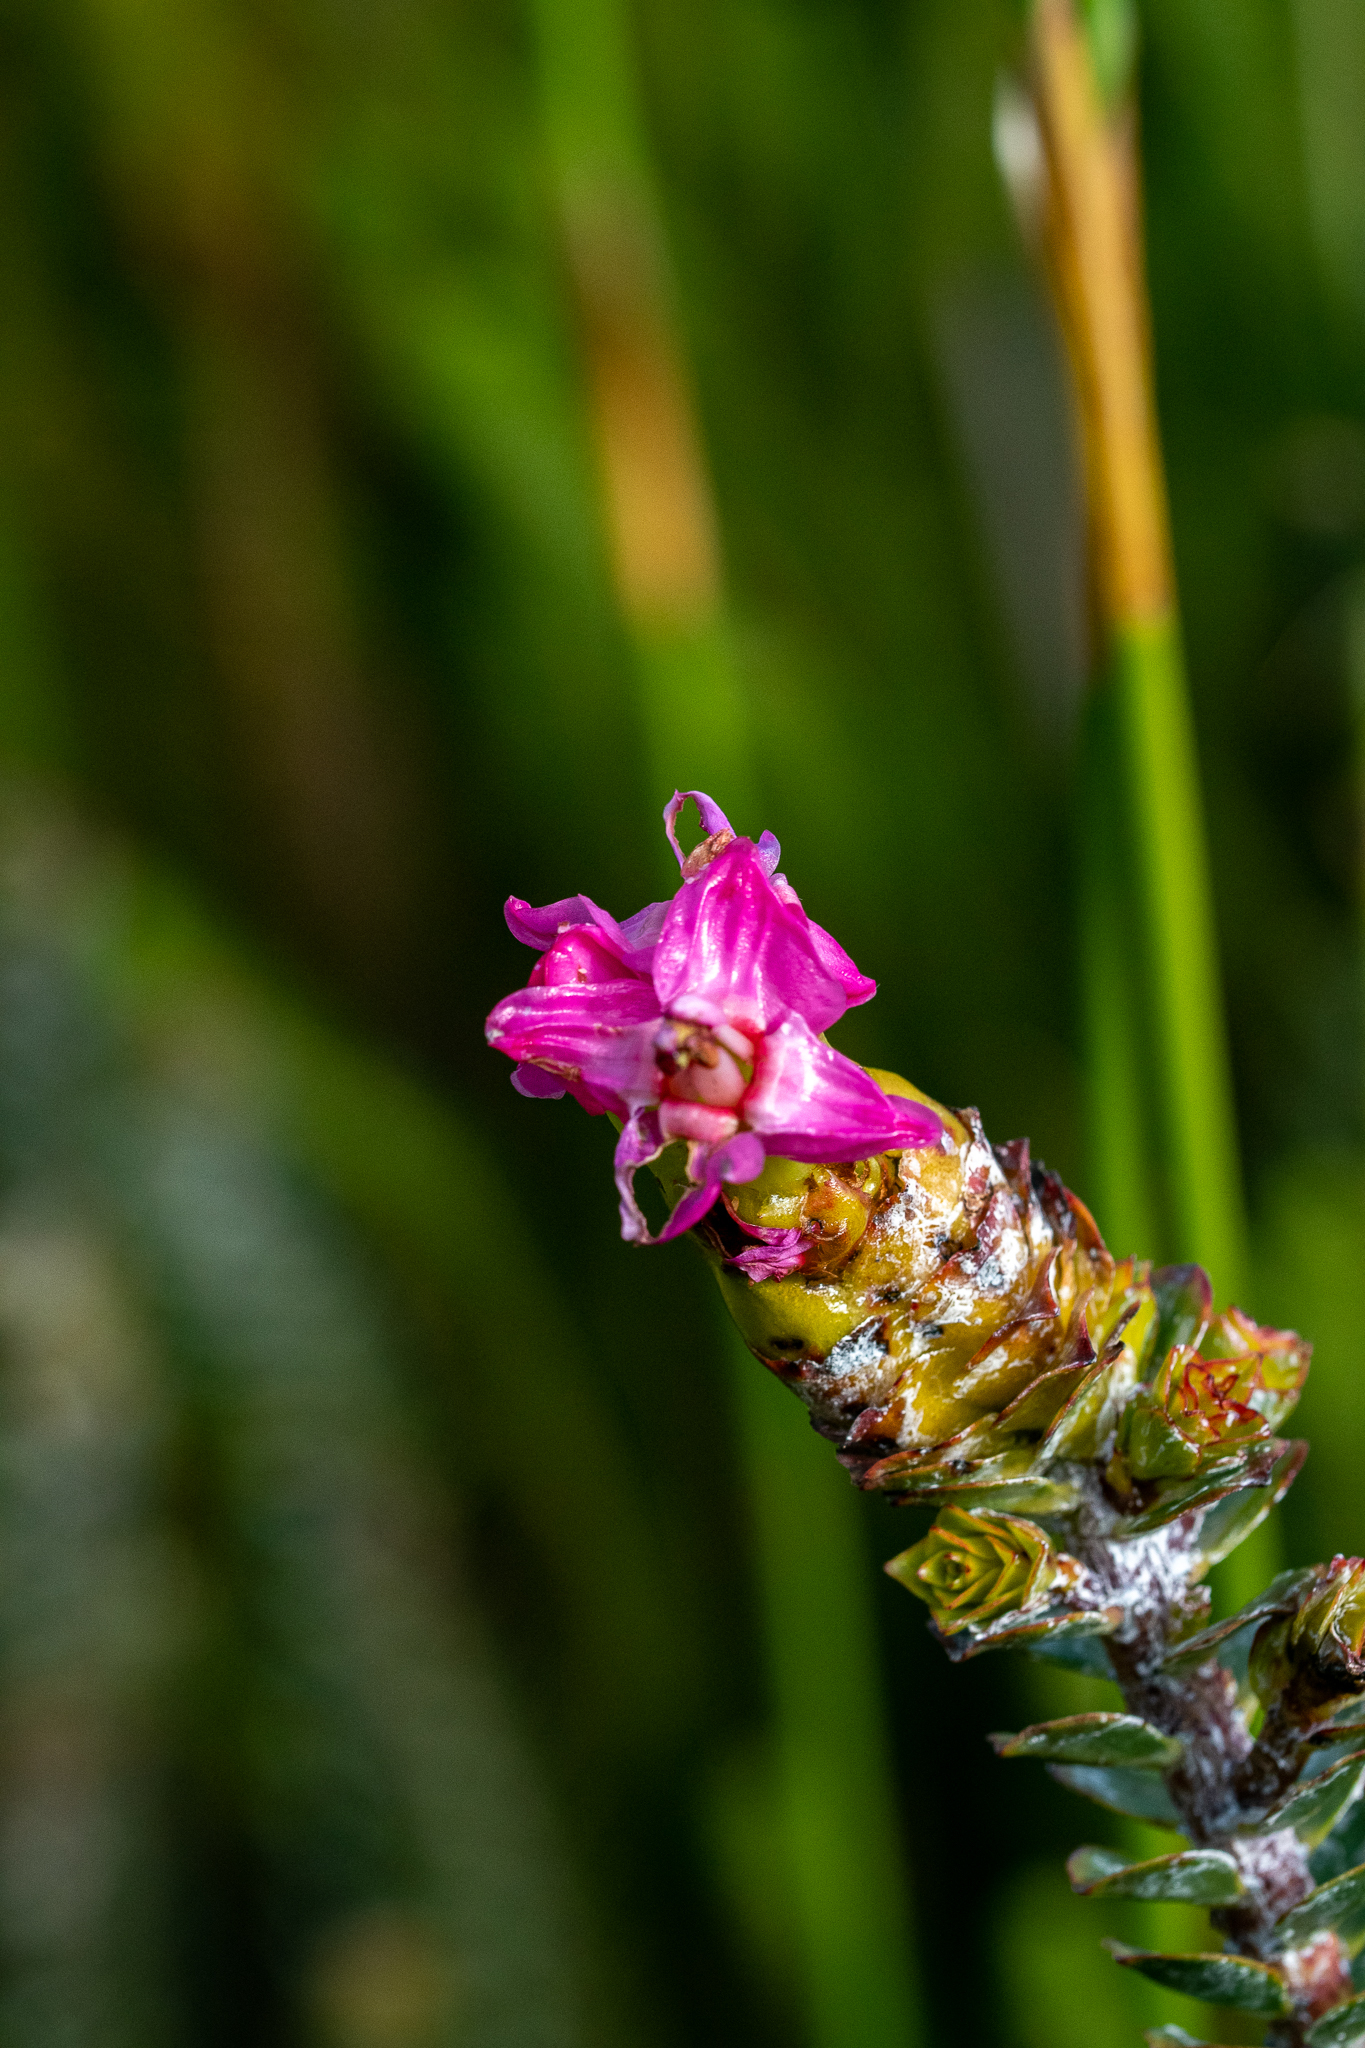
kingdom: Plantae
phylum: Tracheophyta
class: Magnoliopsida
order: Myrtales
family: Penaeaceae
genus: Saltera
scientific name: Saltera sarcocolla
